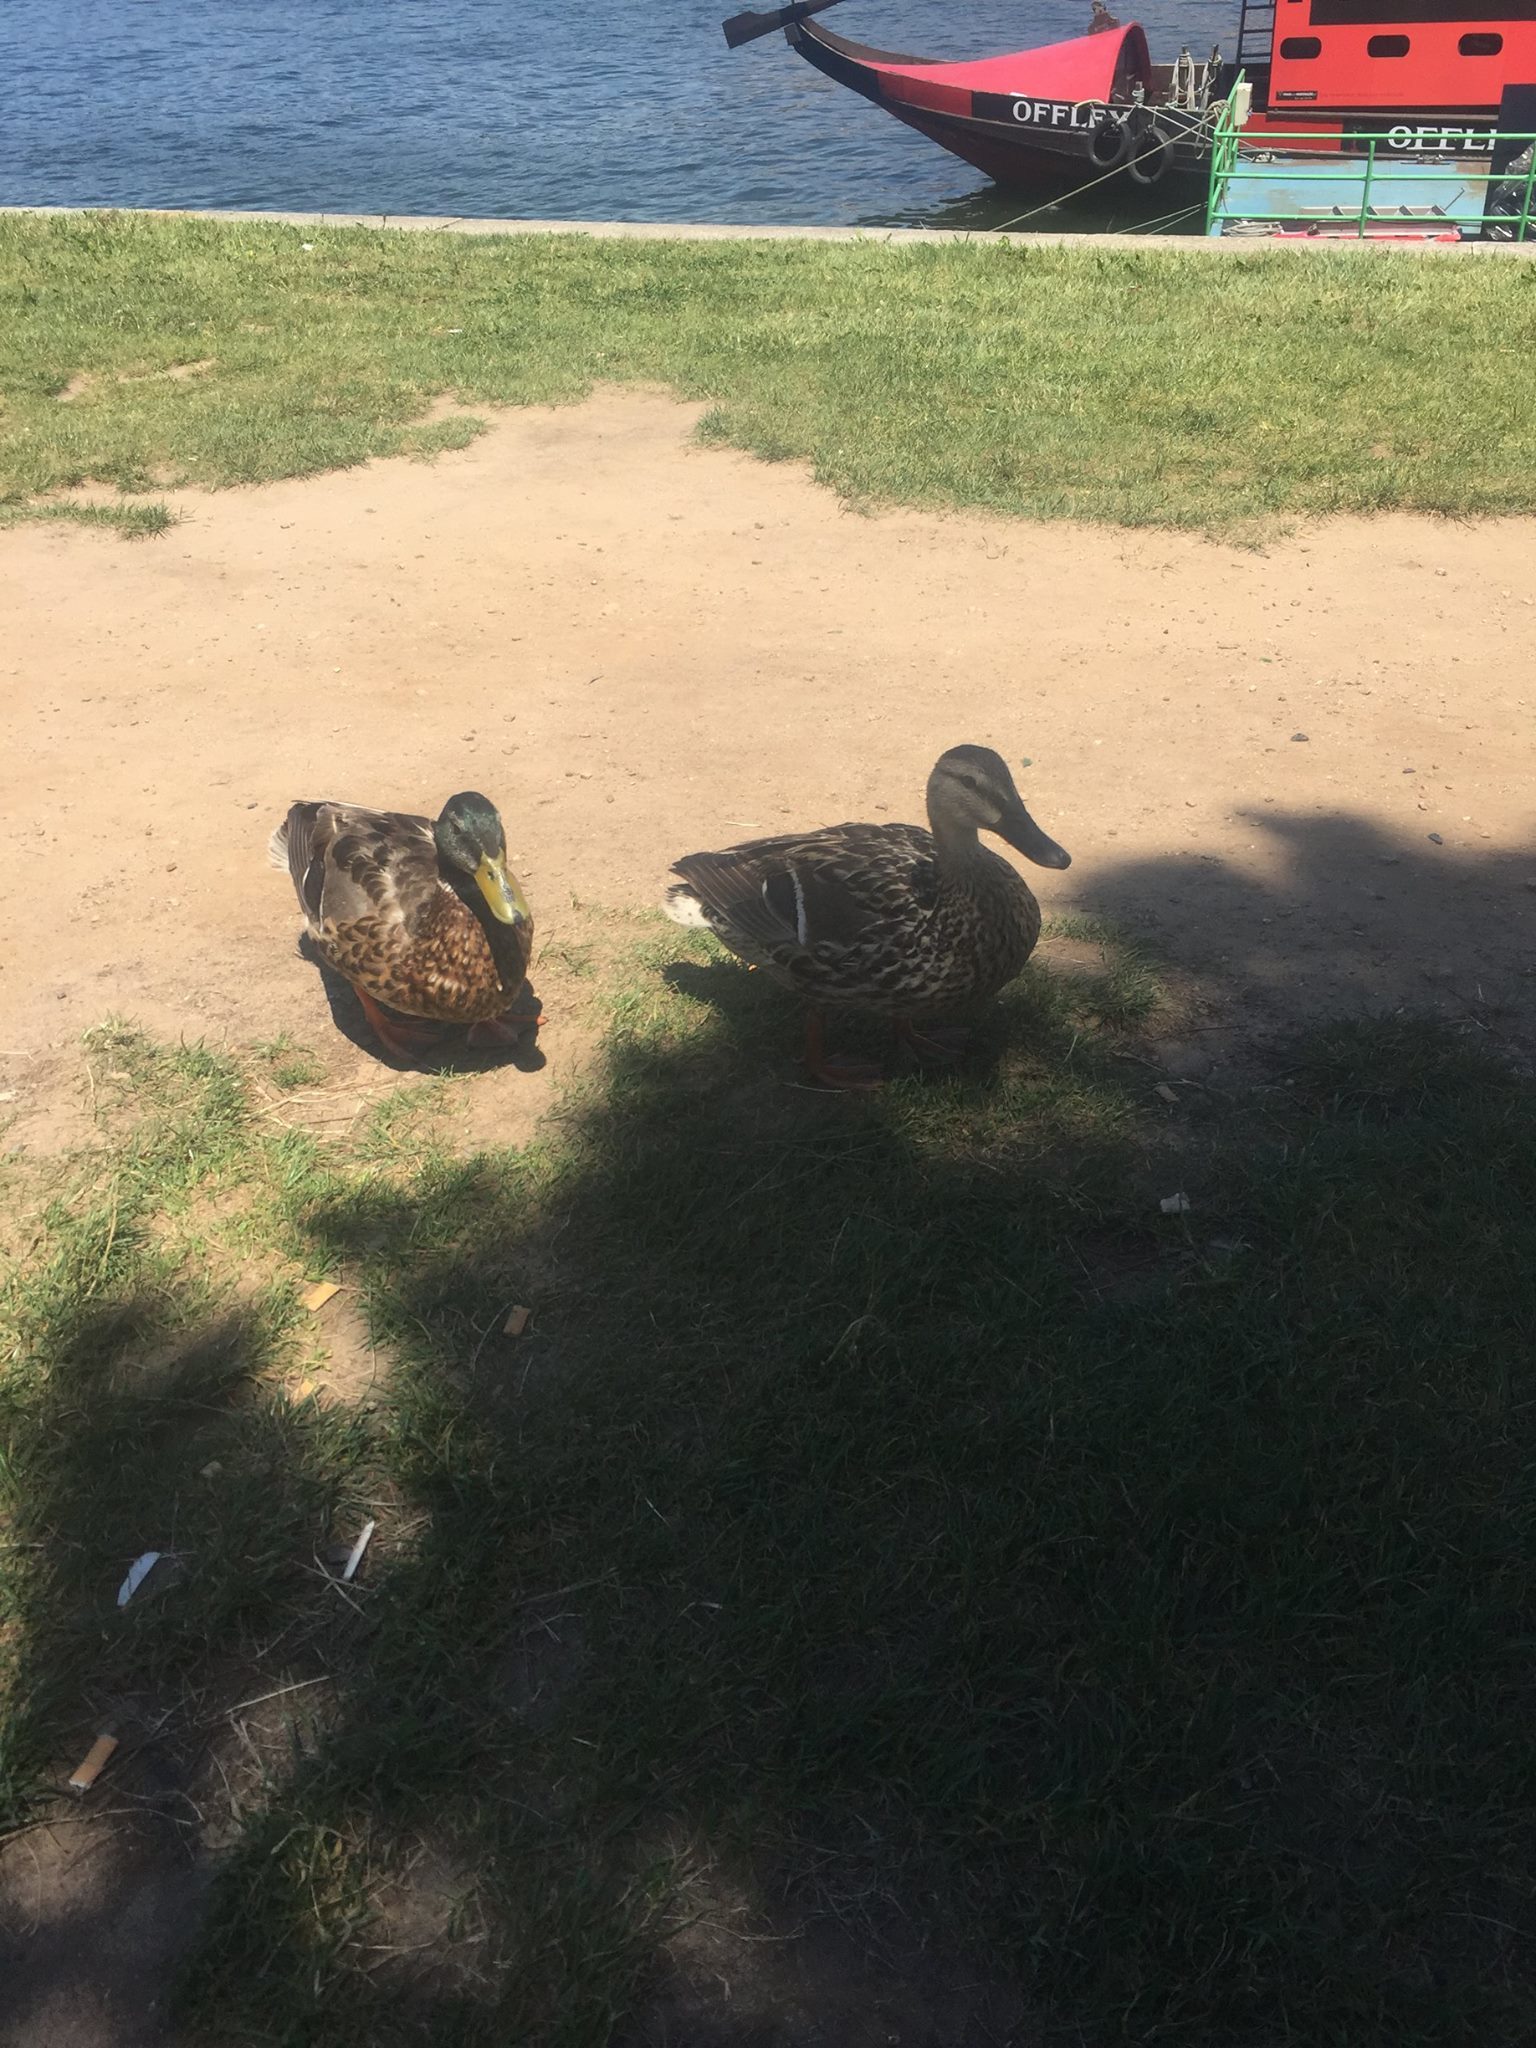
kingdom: Animalia
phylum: Chordata
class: Aves
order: Anseriformes
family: Anatidae
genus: Anas
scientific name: Anas platyrhynchos
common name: Mallard
